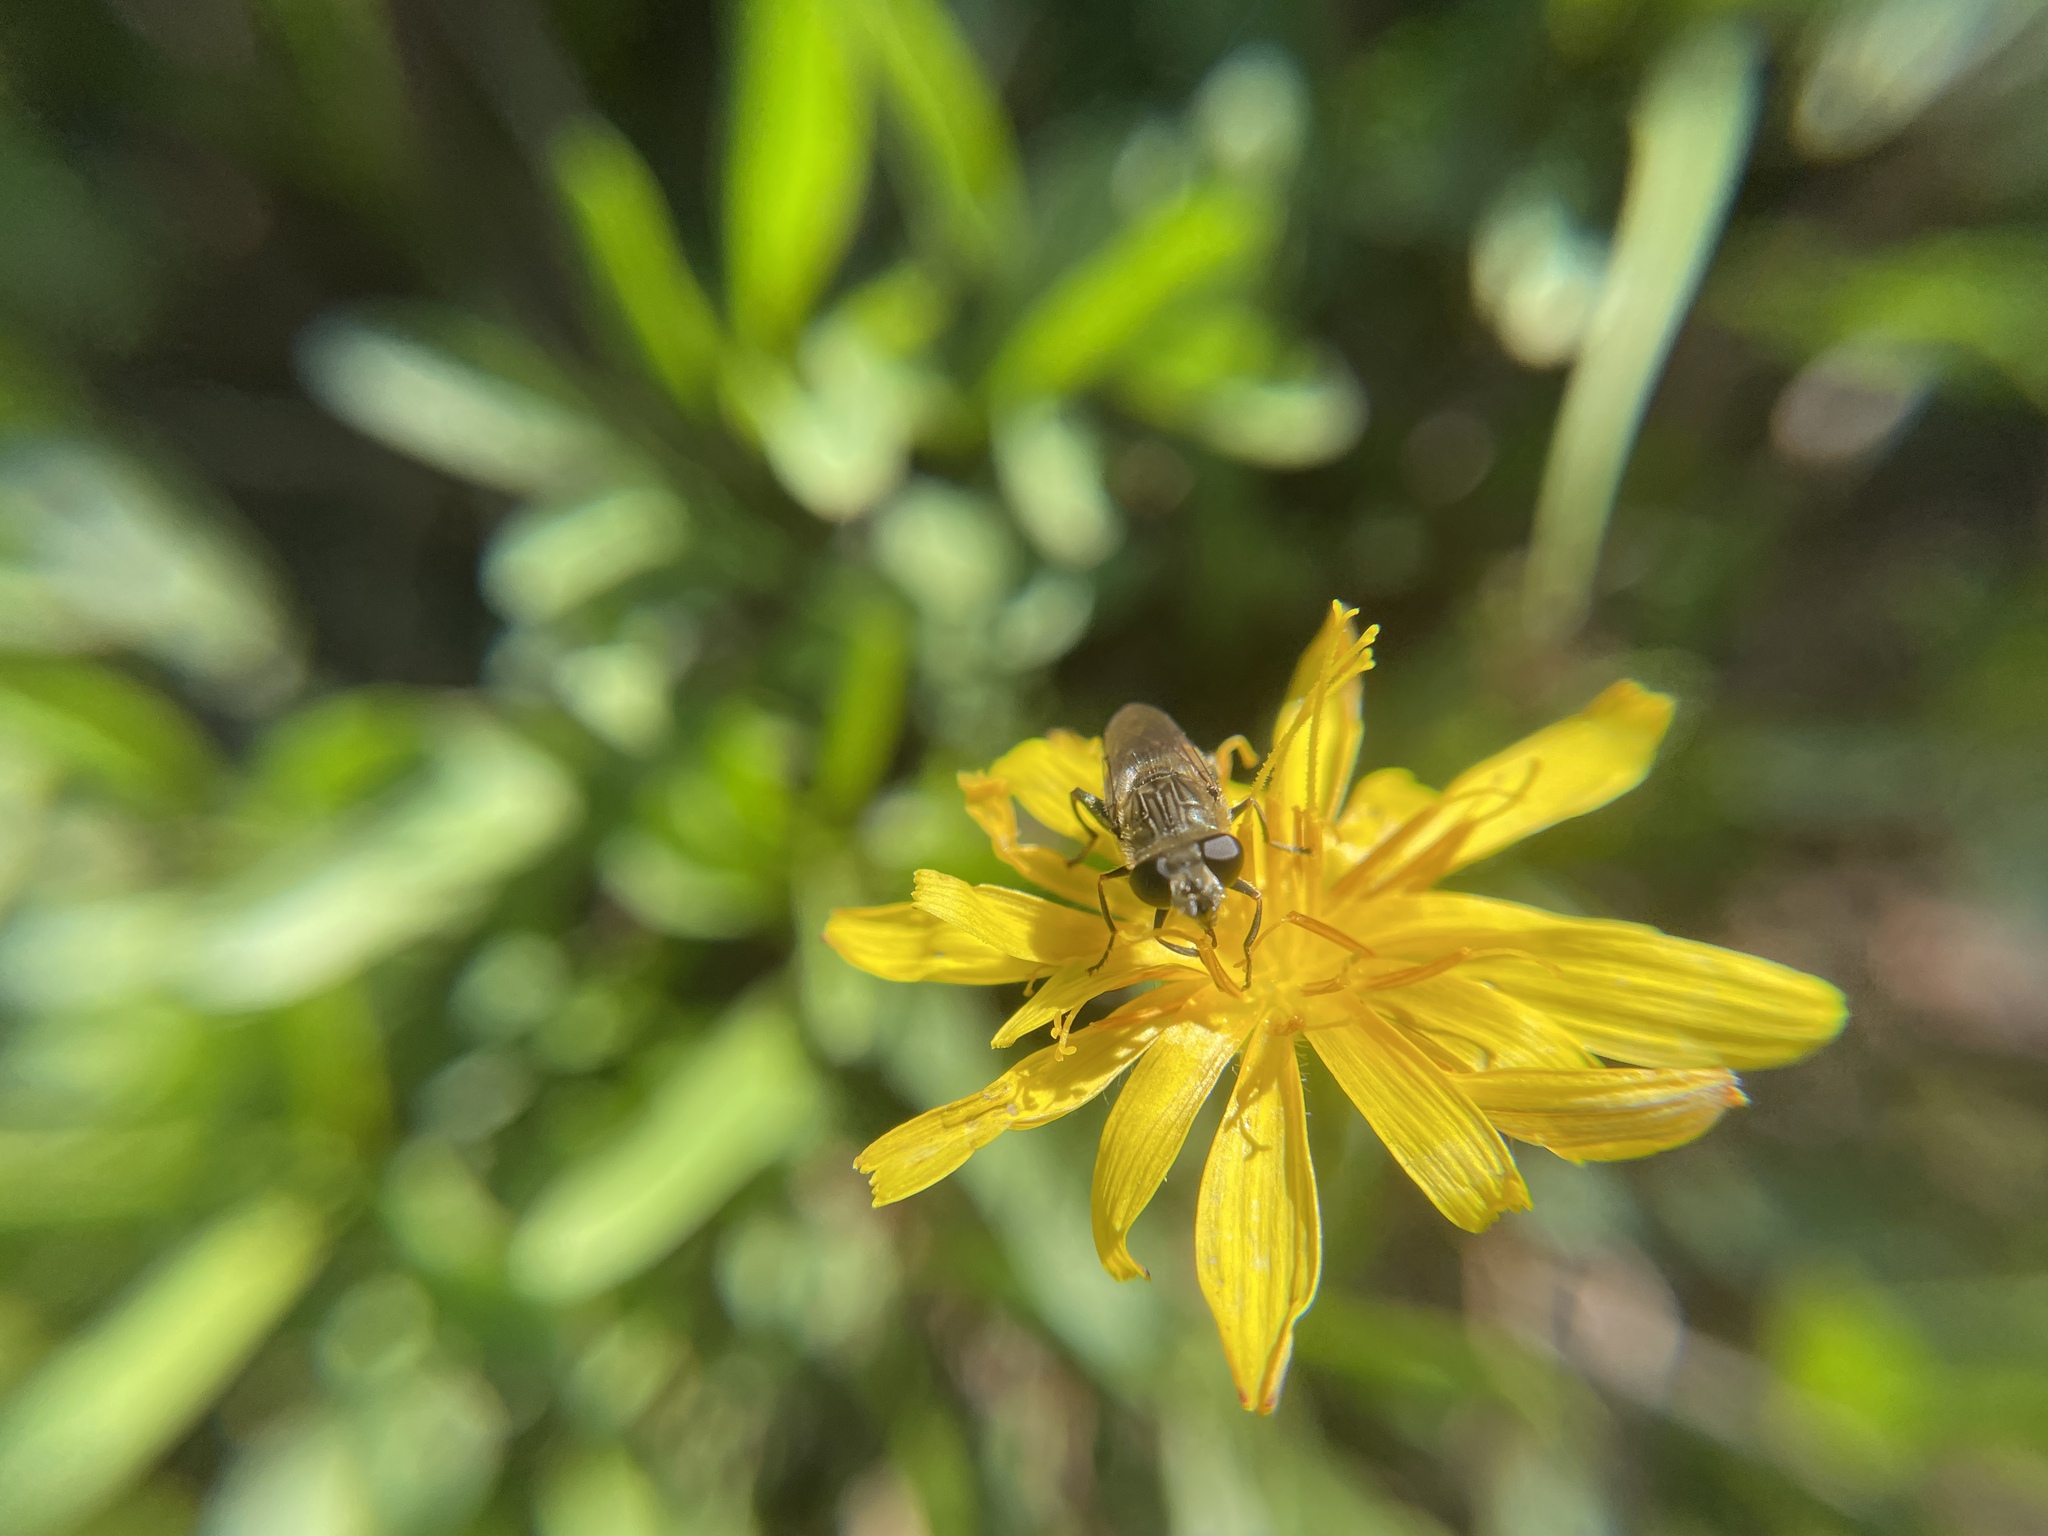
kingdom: Animalia
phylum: Arthropoda
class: Insecta
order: Diptera
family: Syrphidae
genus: Asemosyrphus
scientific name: Asemosyrphus polygrammus
